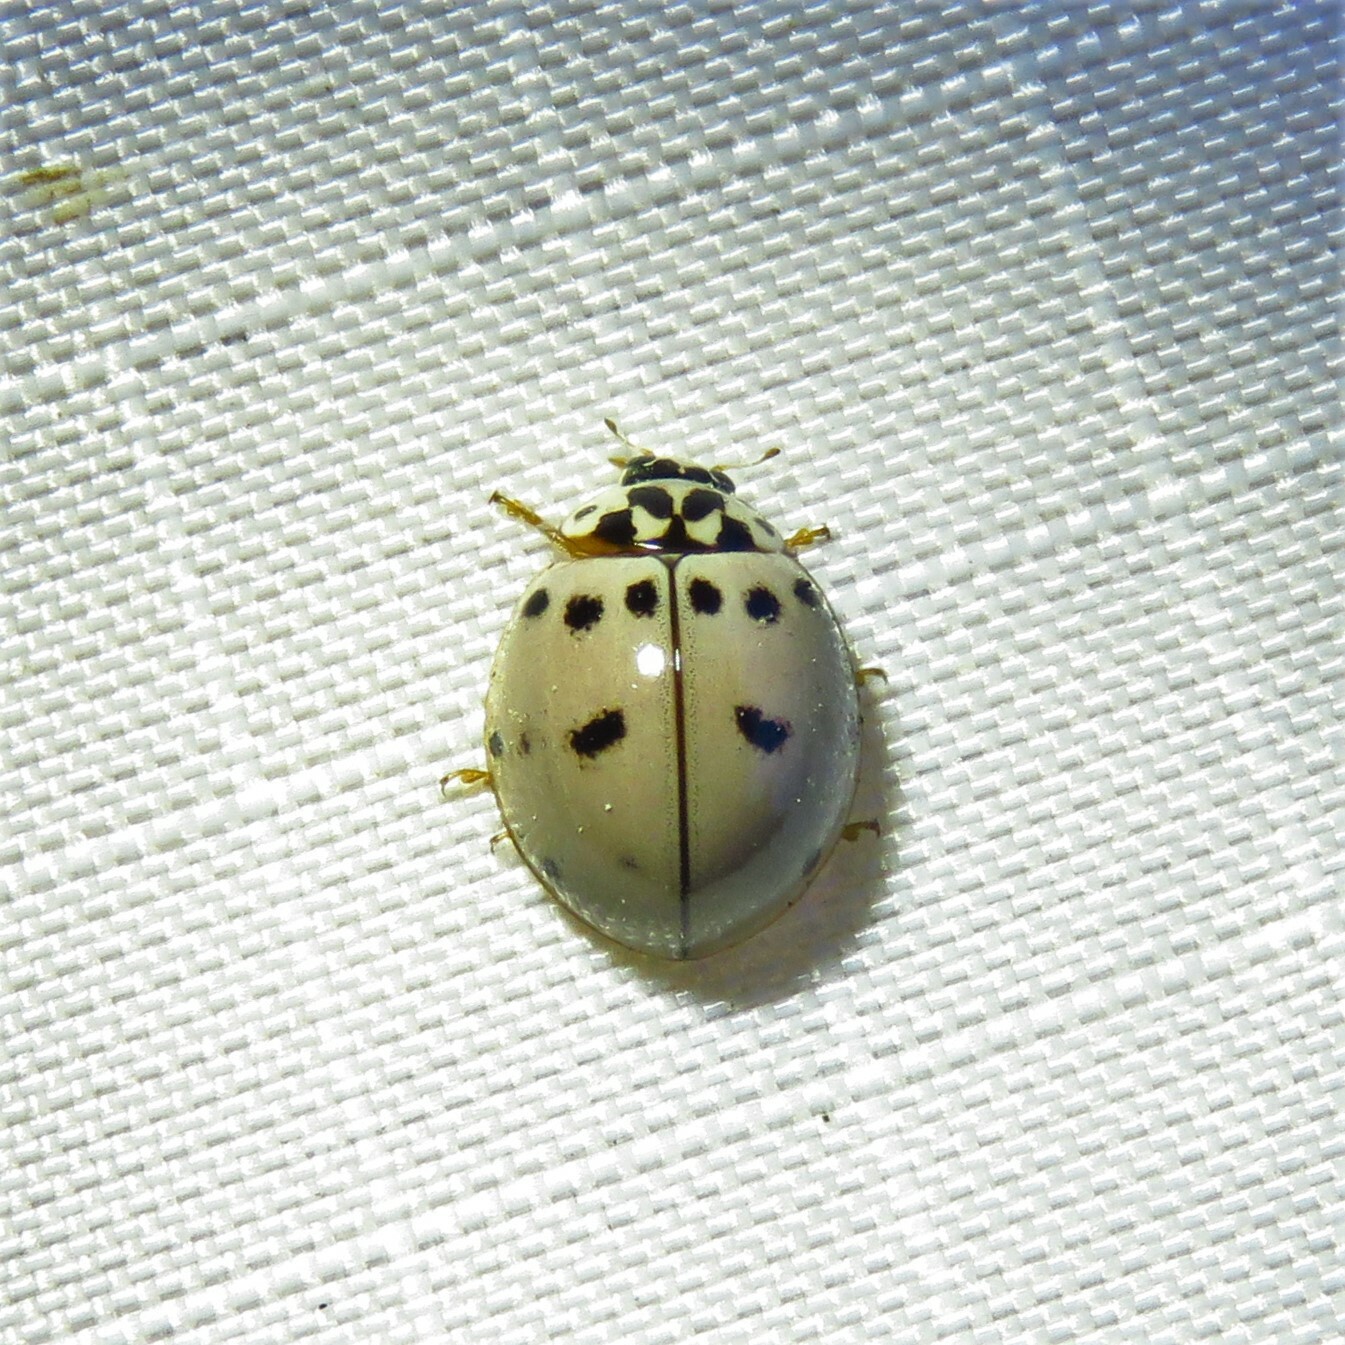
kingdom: Animalia
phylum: Arthropoda
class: Insecta
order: Coleoptera
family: Coccinellidae
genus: Olla
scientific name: Olla v-nigrum
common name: Ashy gray lady beetle
